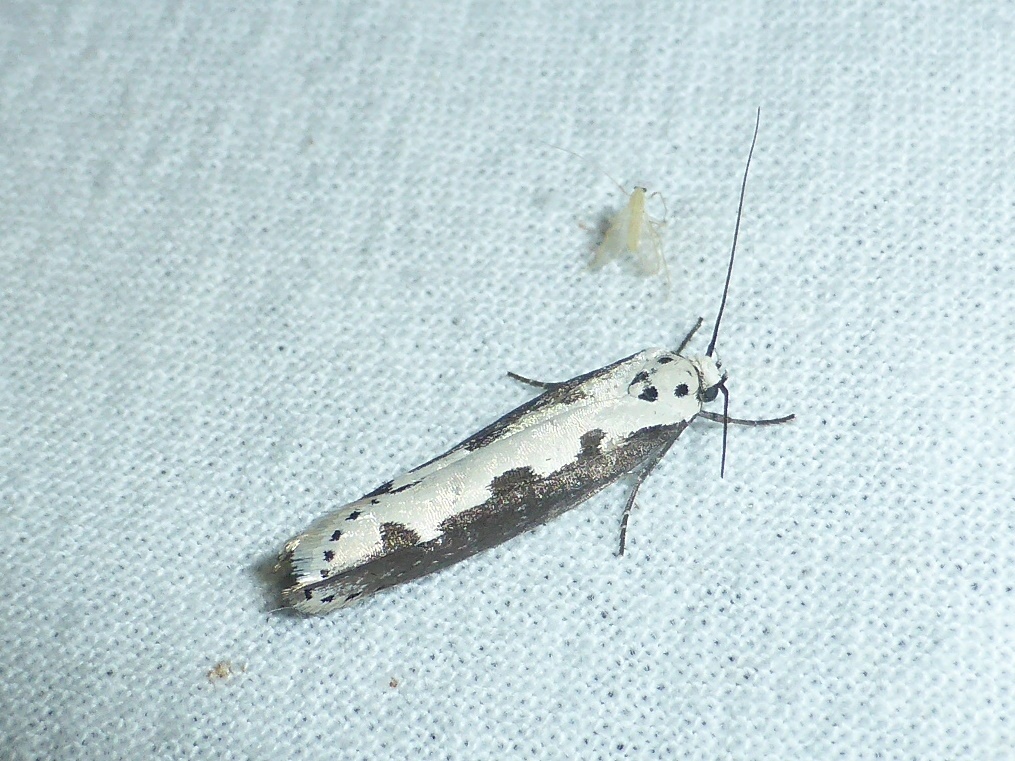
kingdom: Animalia
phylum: Arthropoda
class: Insecta
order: Lepidoptera
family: Ethmiidae
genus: Ethmia
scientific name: Ethmia bipunctella
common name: Bordered ermel
